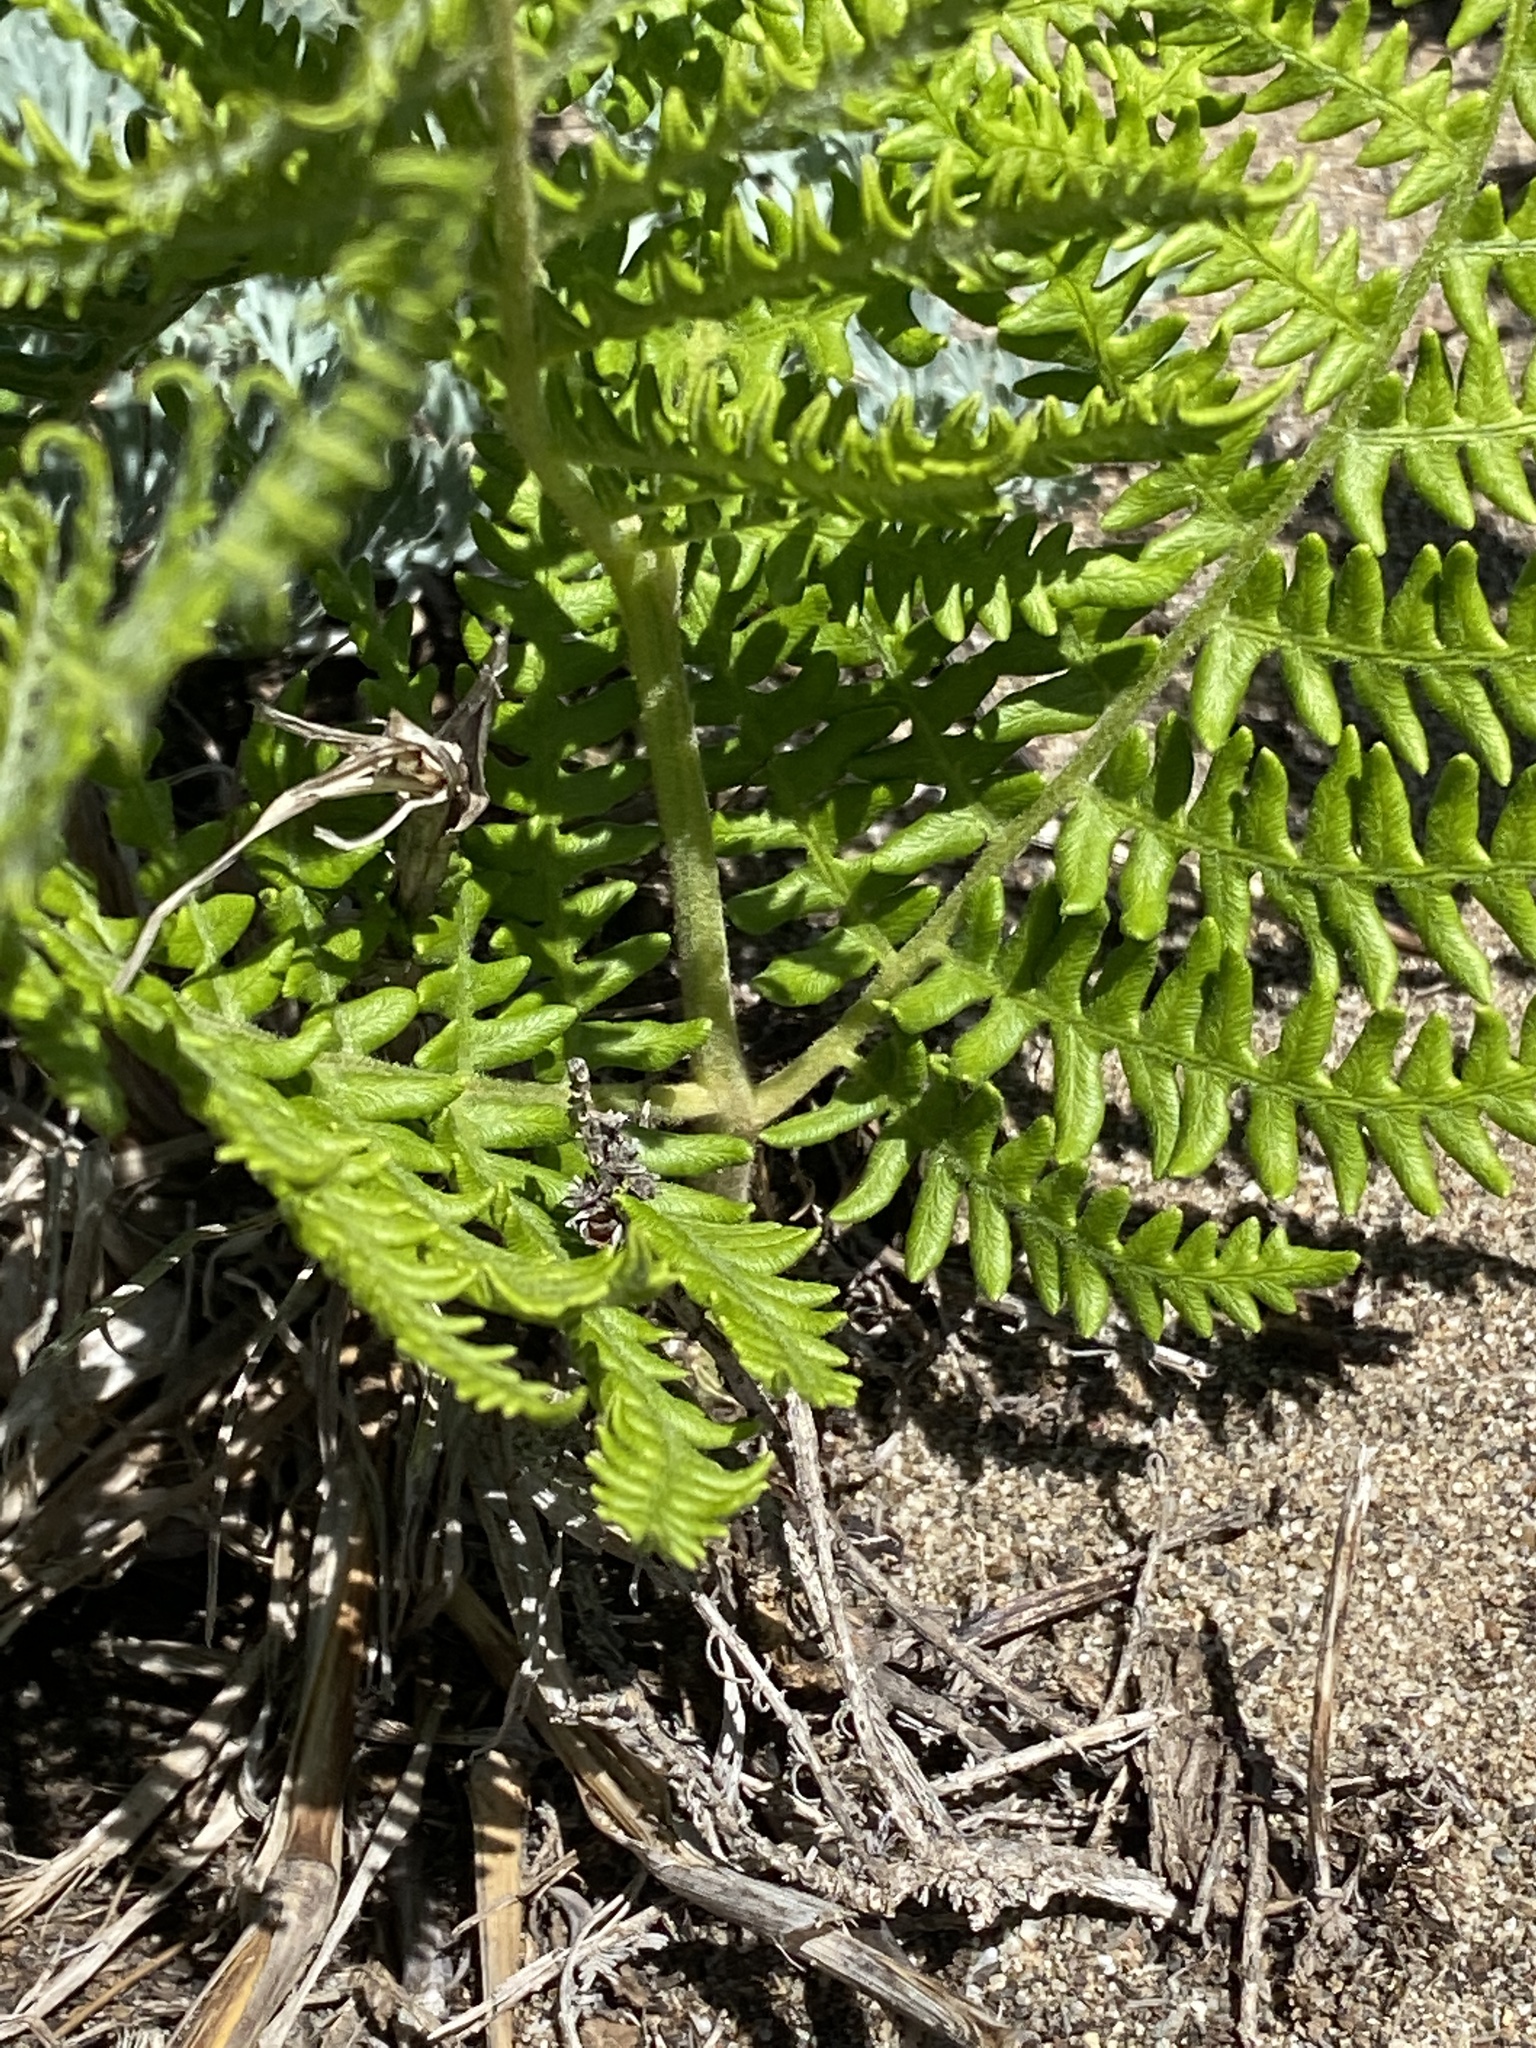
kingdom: Plantae
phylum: Tracheophyta
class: Polypodiopsida
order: Polypodiales
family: Dennstaedtiaceae
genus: Pteridium
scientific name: Pteridium aquilinum
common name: Bracken
